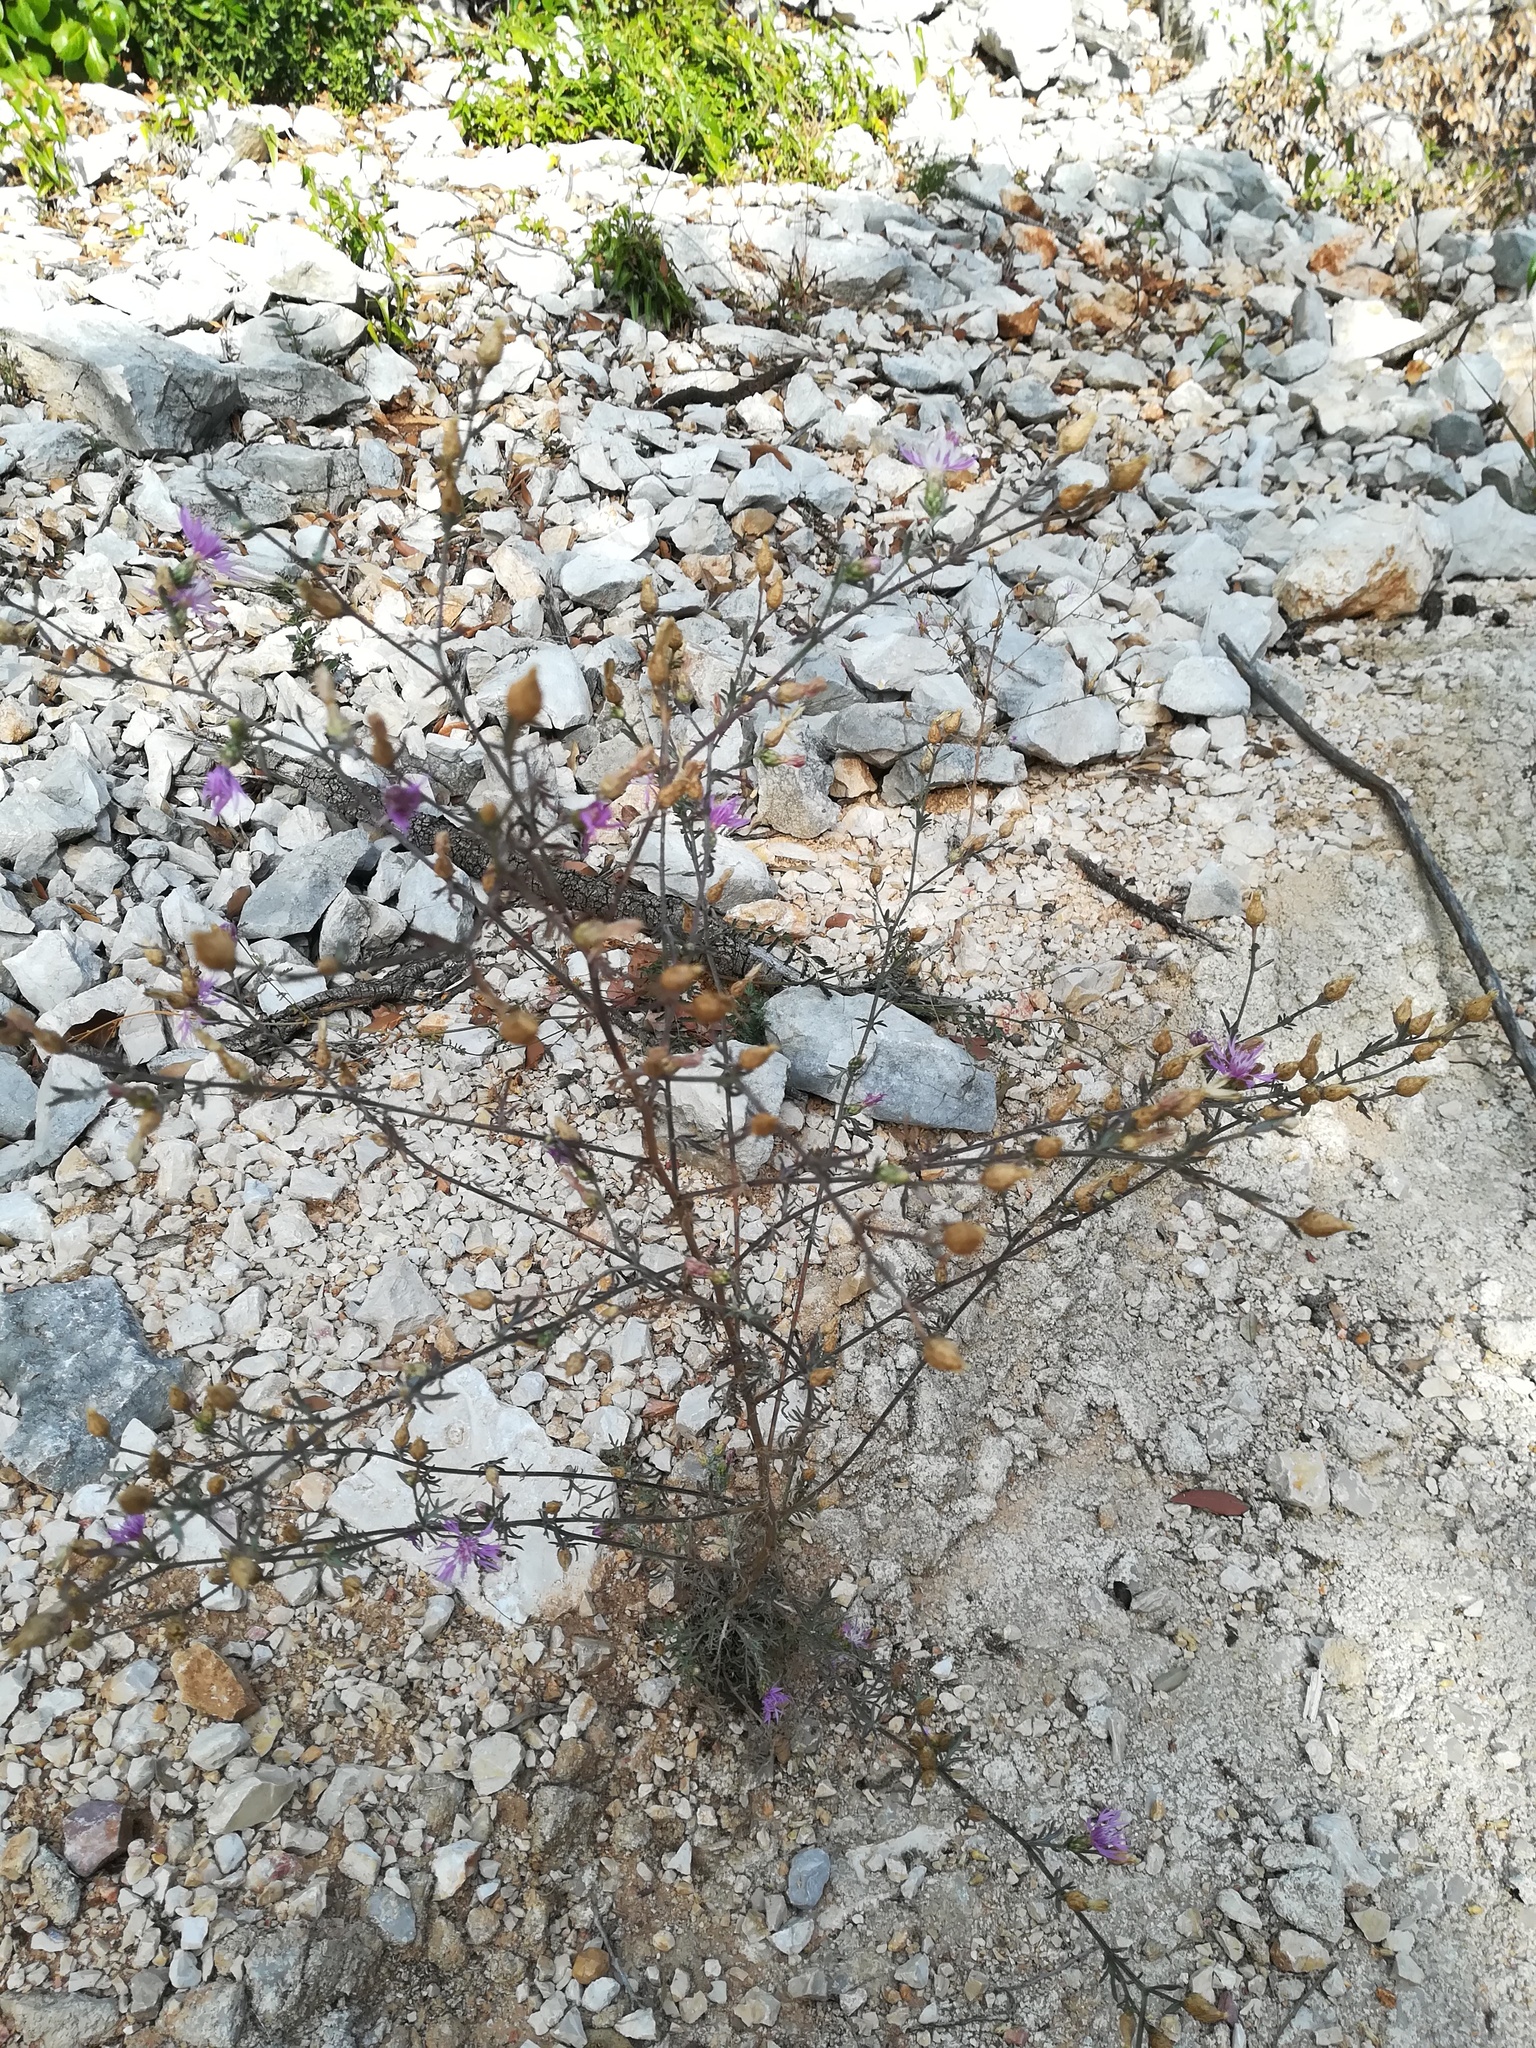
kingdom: Plantae
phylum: Tracheophyta
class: Magnoliopsida
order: Asterales
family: Asteraceae
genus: Centaurea
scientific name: Centaurea paniculata
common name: Jersey knapweed
